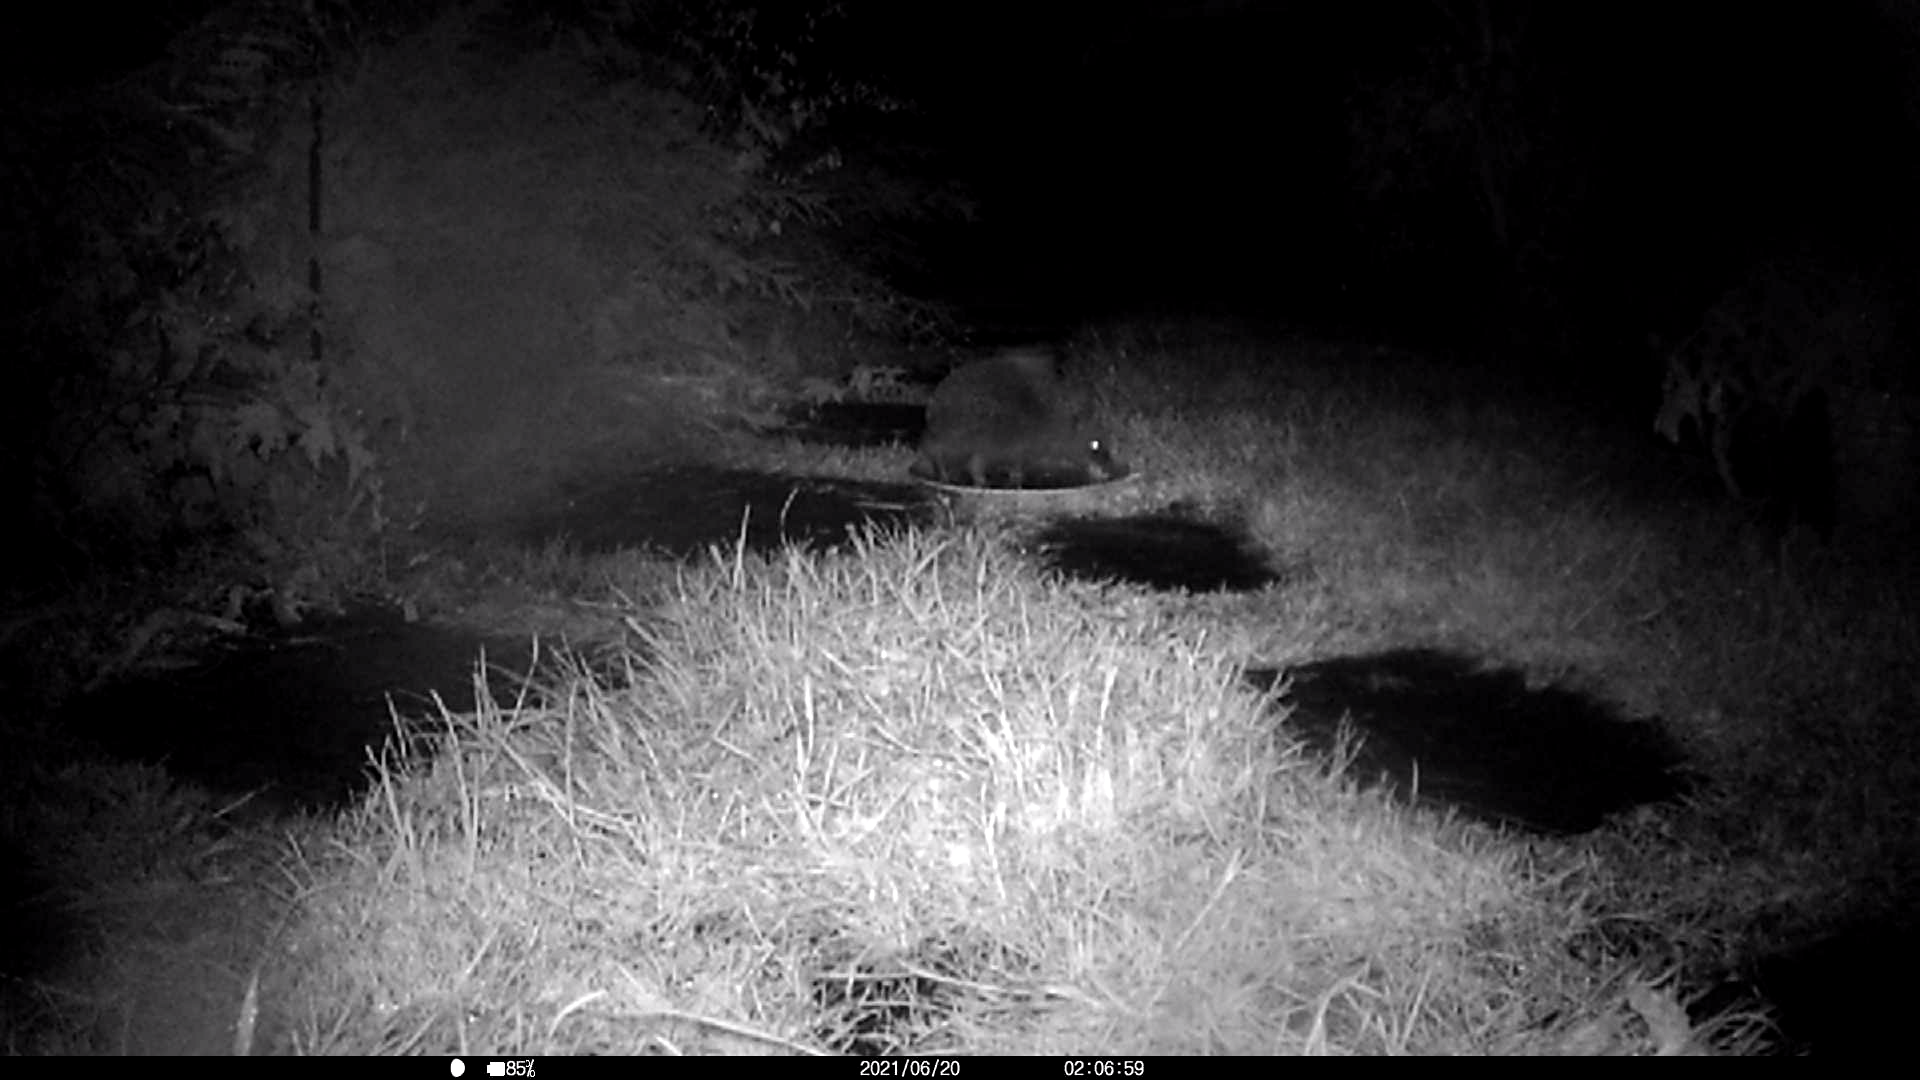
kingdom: Animalia
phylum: Chordata
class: Mammalia
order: Erinaceomorpha
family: Erinaceidae
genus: Erinaceus
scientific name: Erinaceus europaeus
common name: West european hedgehog
